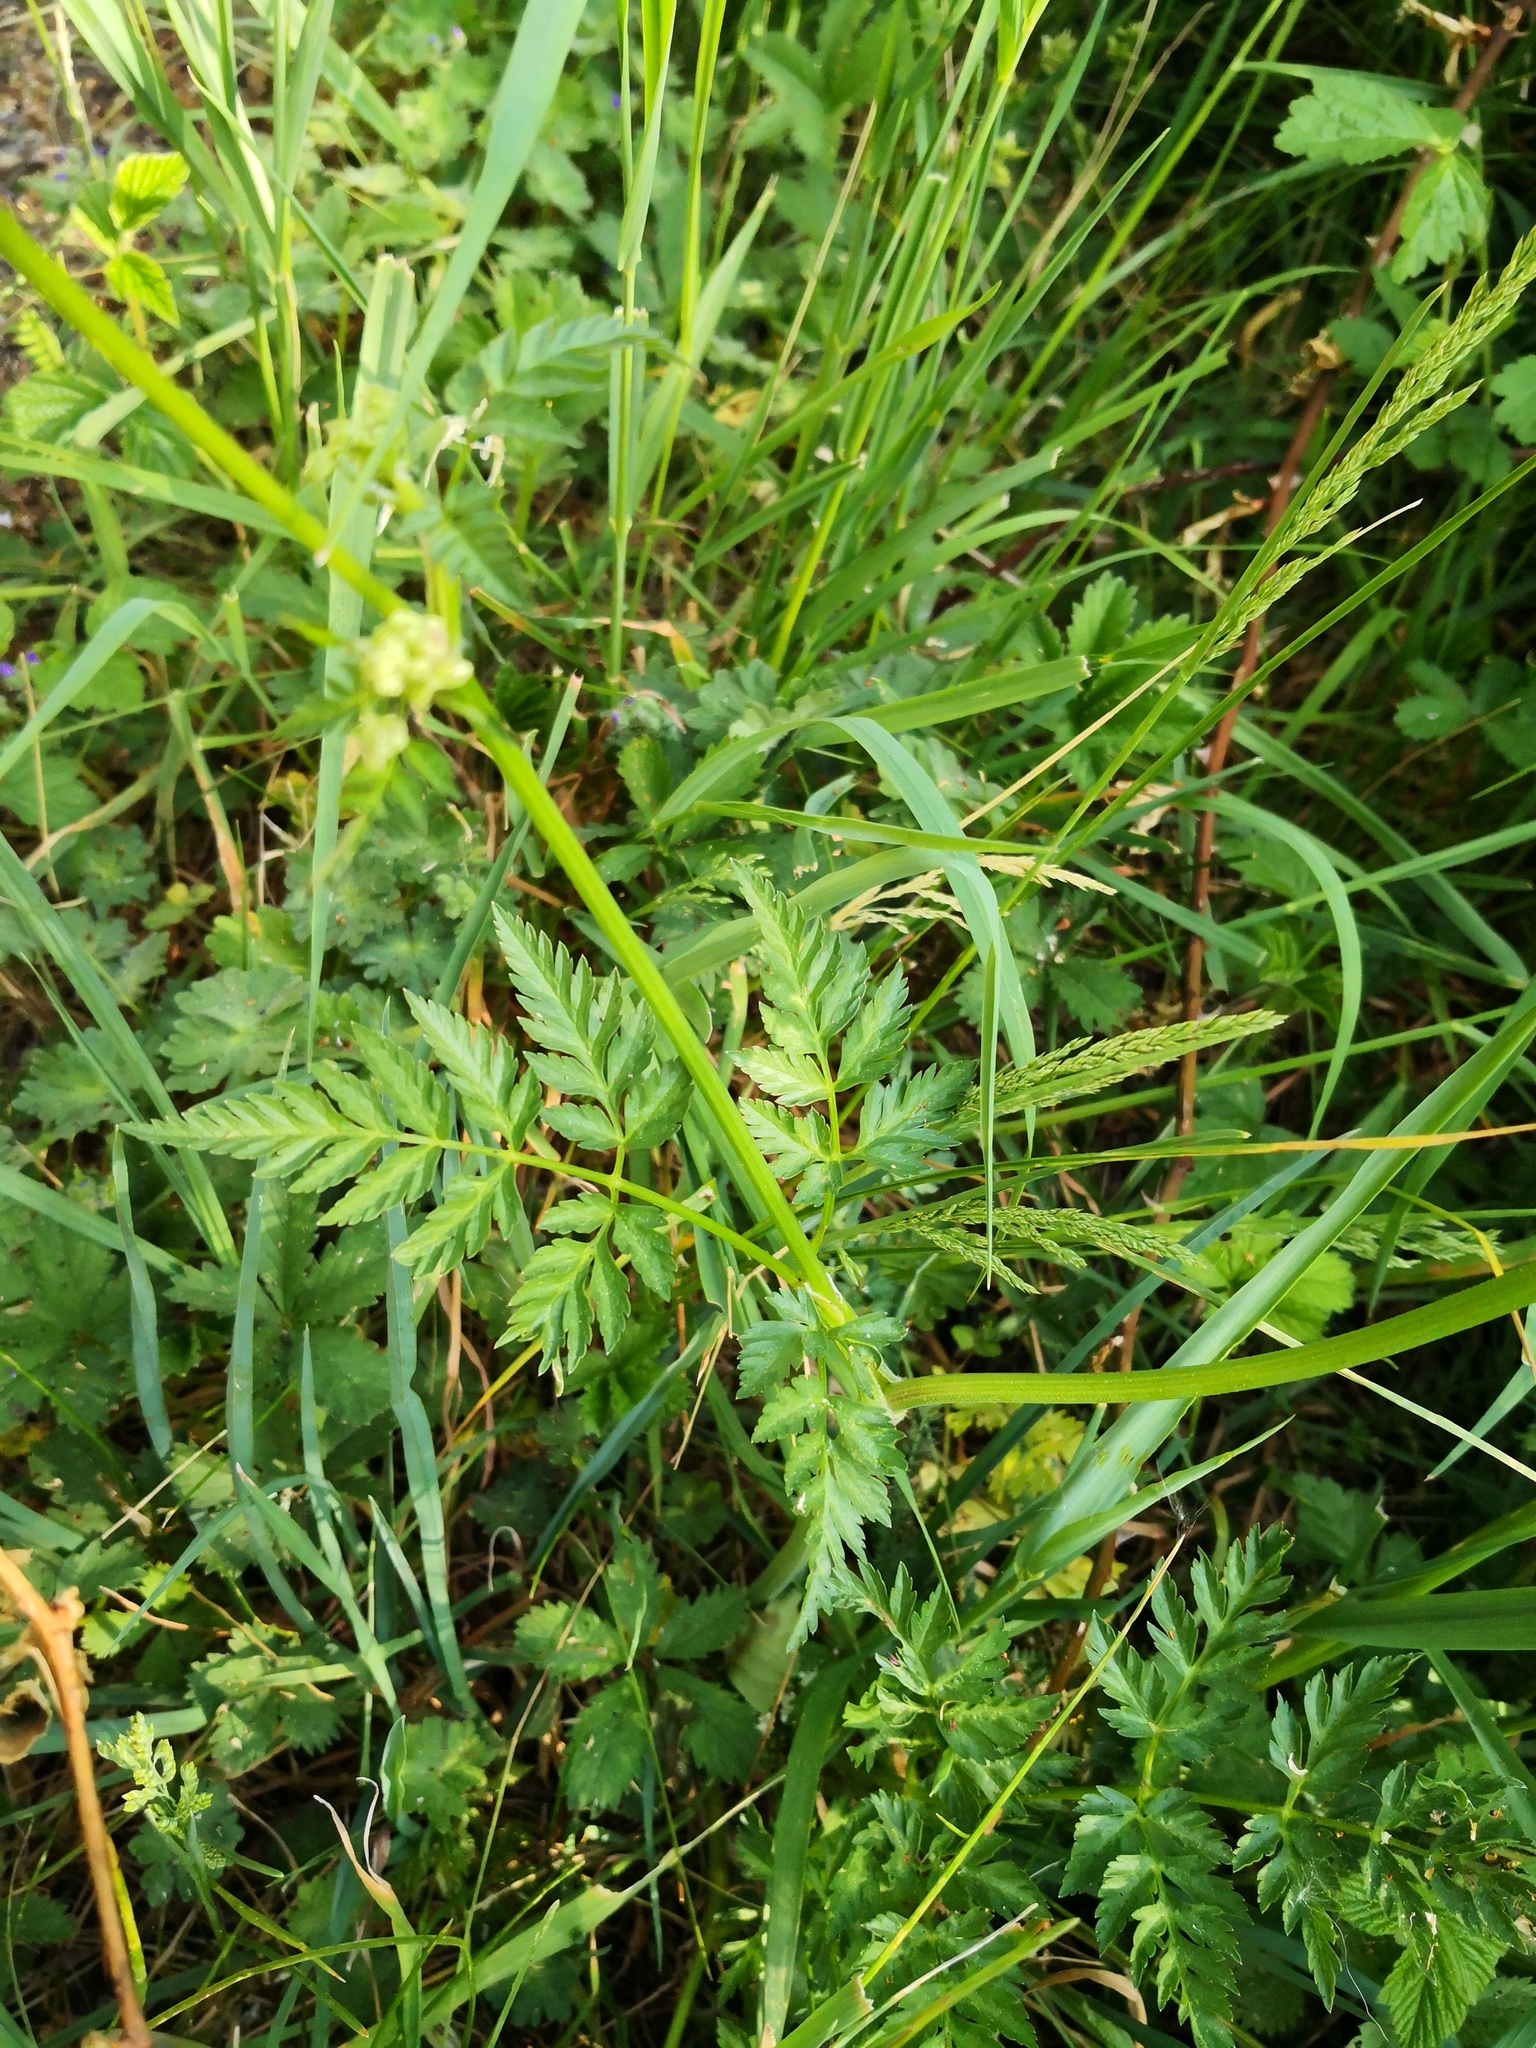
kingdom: Plantae
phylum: Tracheophyta
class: Magnoliopsida
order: Apiales
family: Apiaceae
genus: Anthriscus
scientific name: Anthriscus sylvestris
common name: Cow parsley
